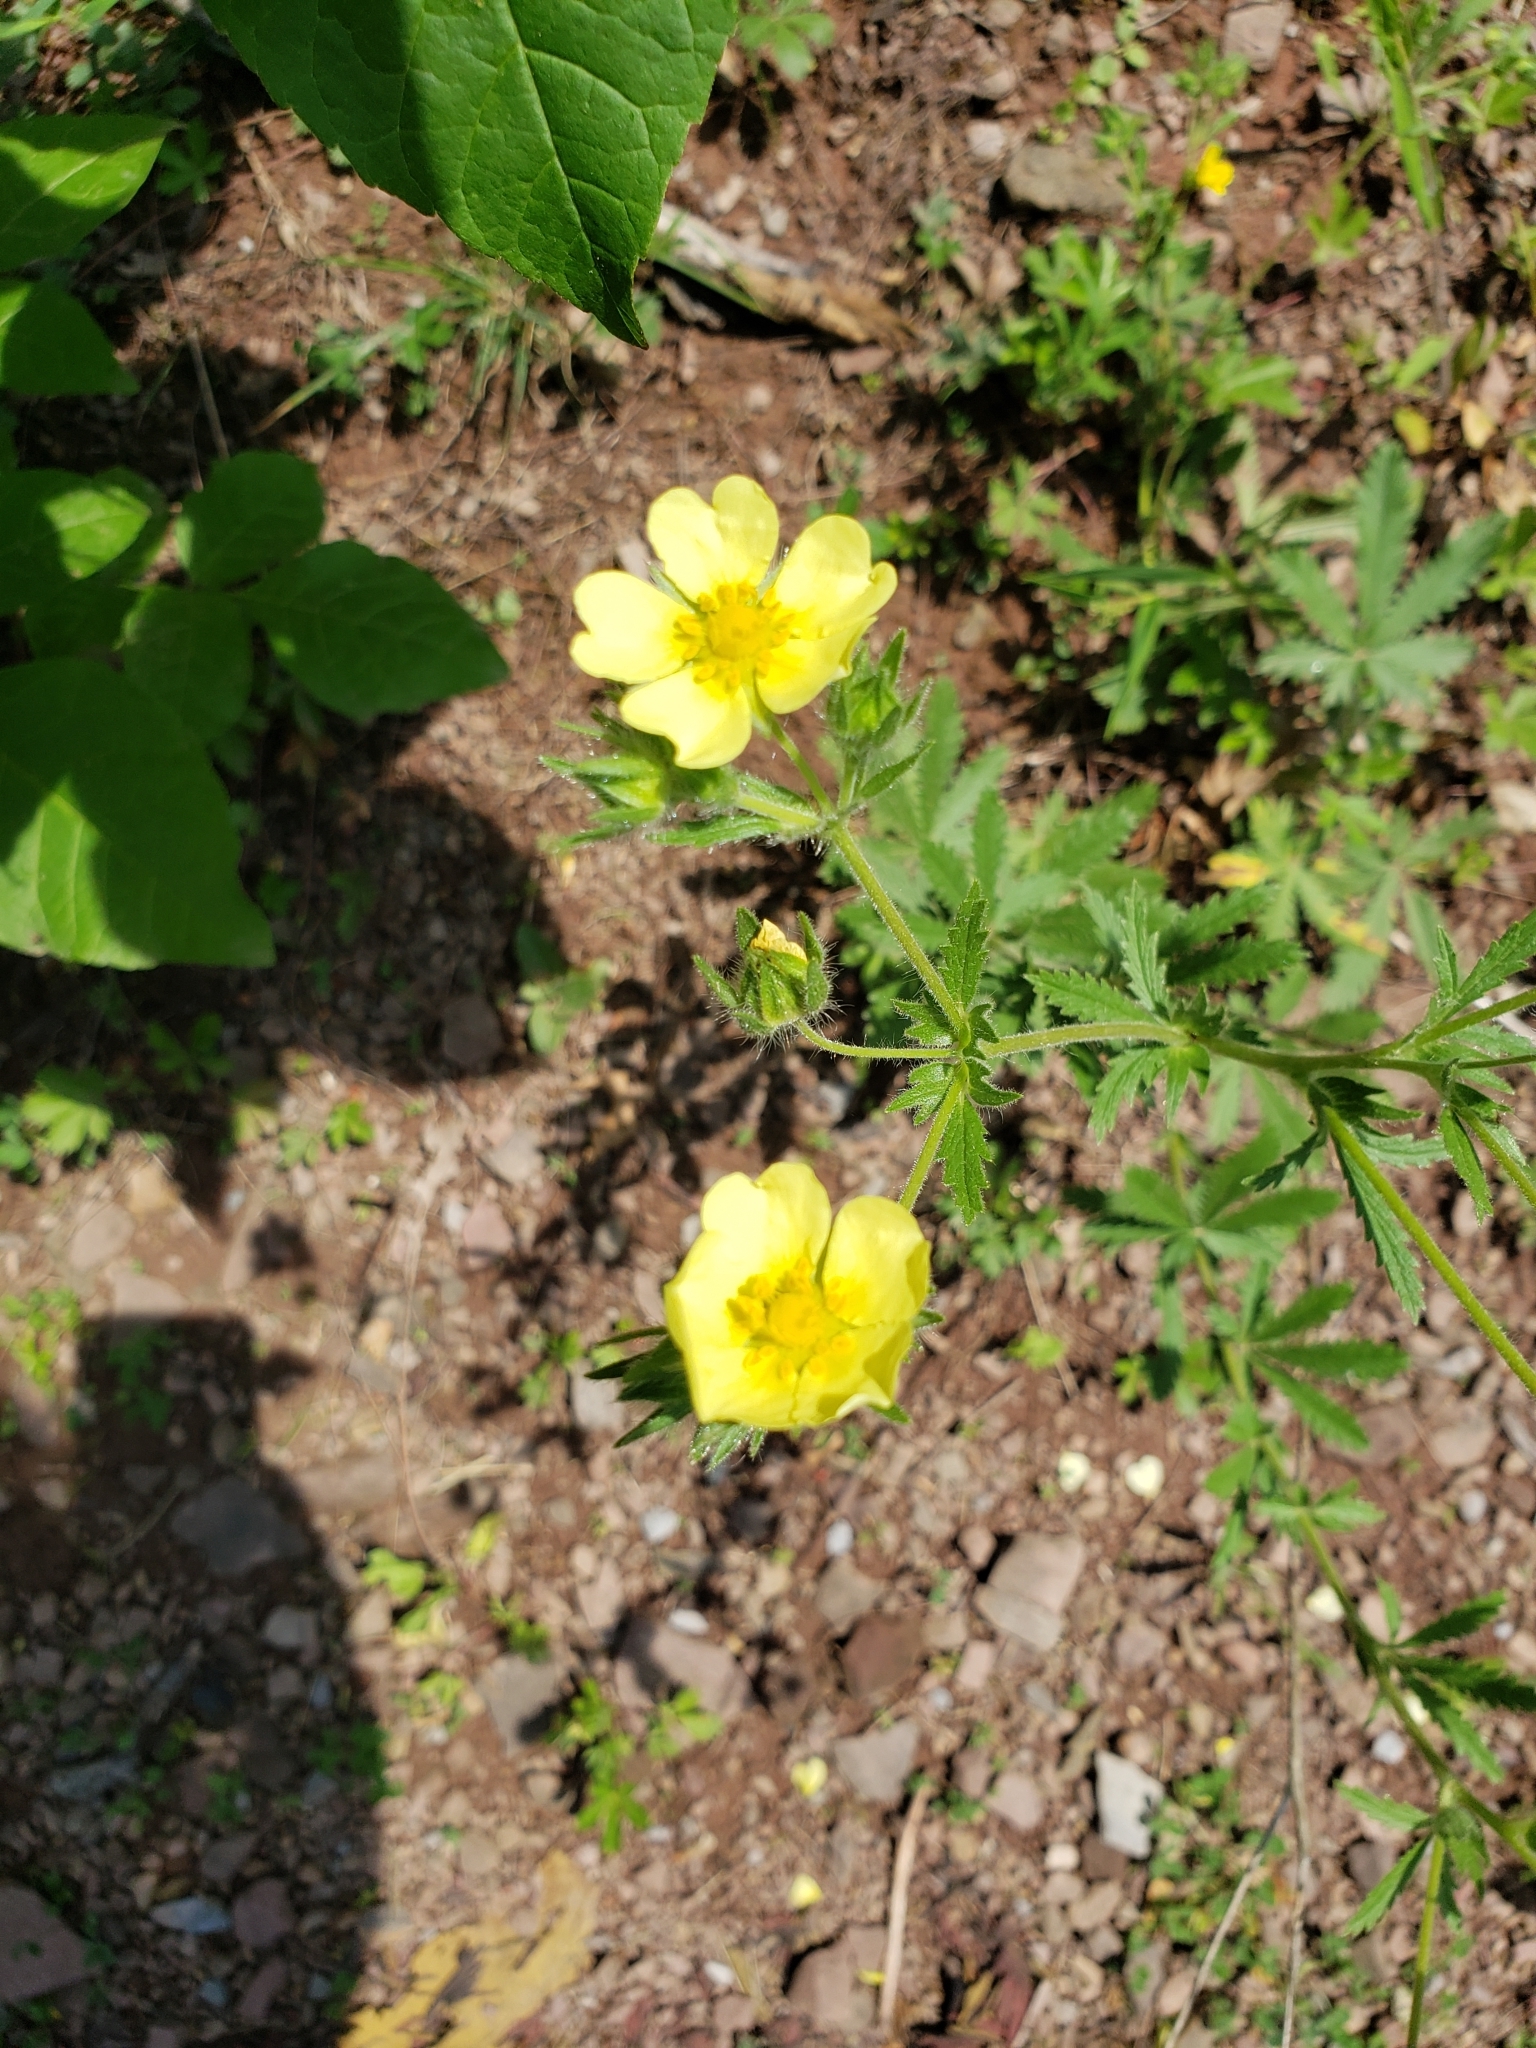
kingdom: Plantae
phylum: Tracheophyta
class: Magnoliopsida
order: Rosales
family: Rosaceae
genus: Potentilla
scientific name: Potentilla recta
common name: Sulphur cinquefoil
